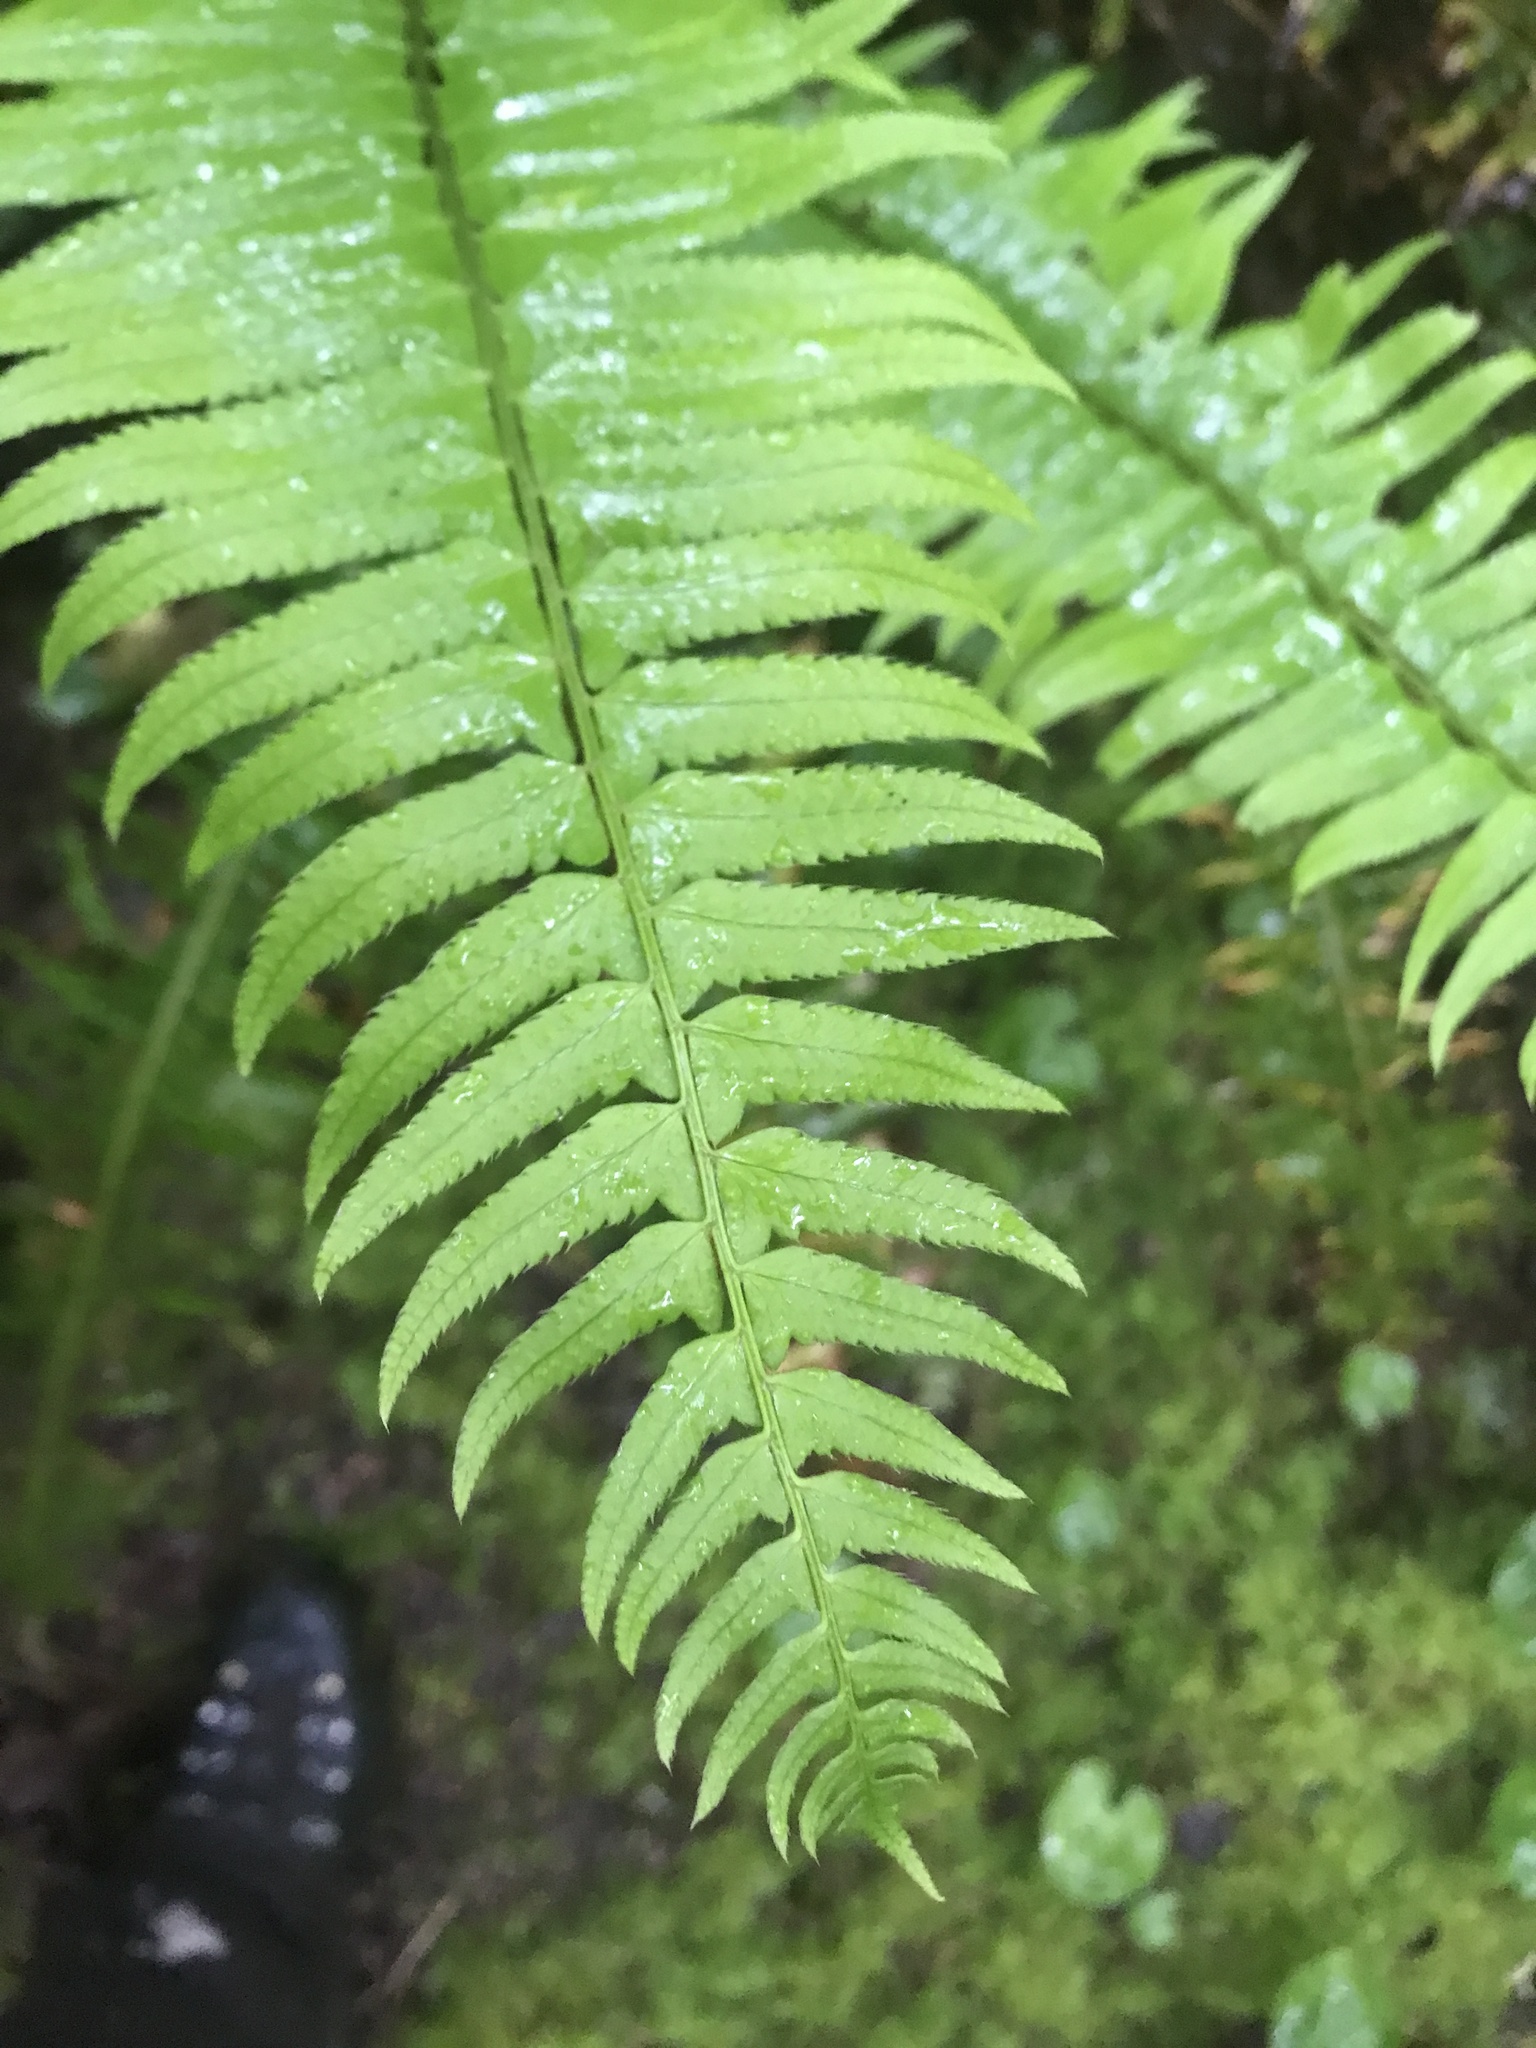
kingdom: Plantae
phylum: Tracheophyta
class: Polypodiopsida
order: Polypodiales
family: Dryopteridaceae
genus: Polystichum
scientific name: Polystichum munitum
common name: Western sword-fern
